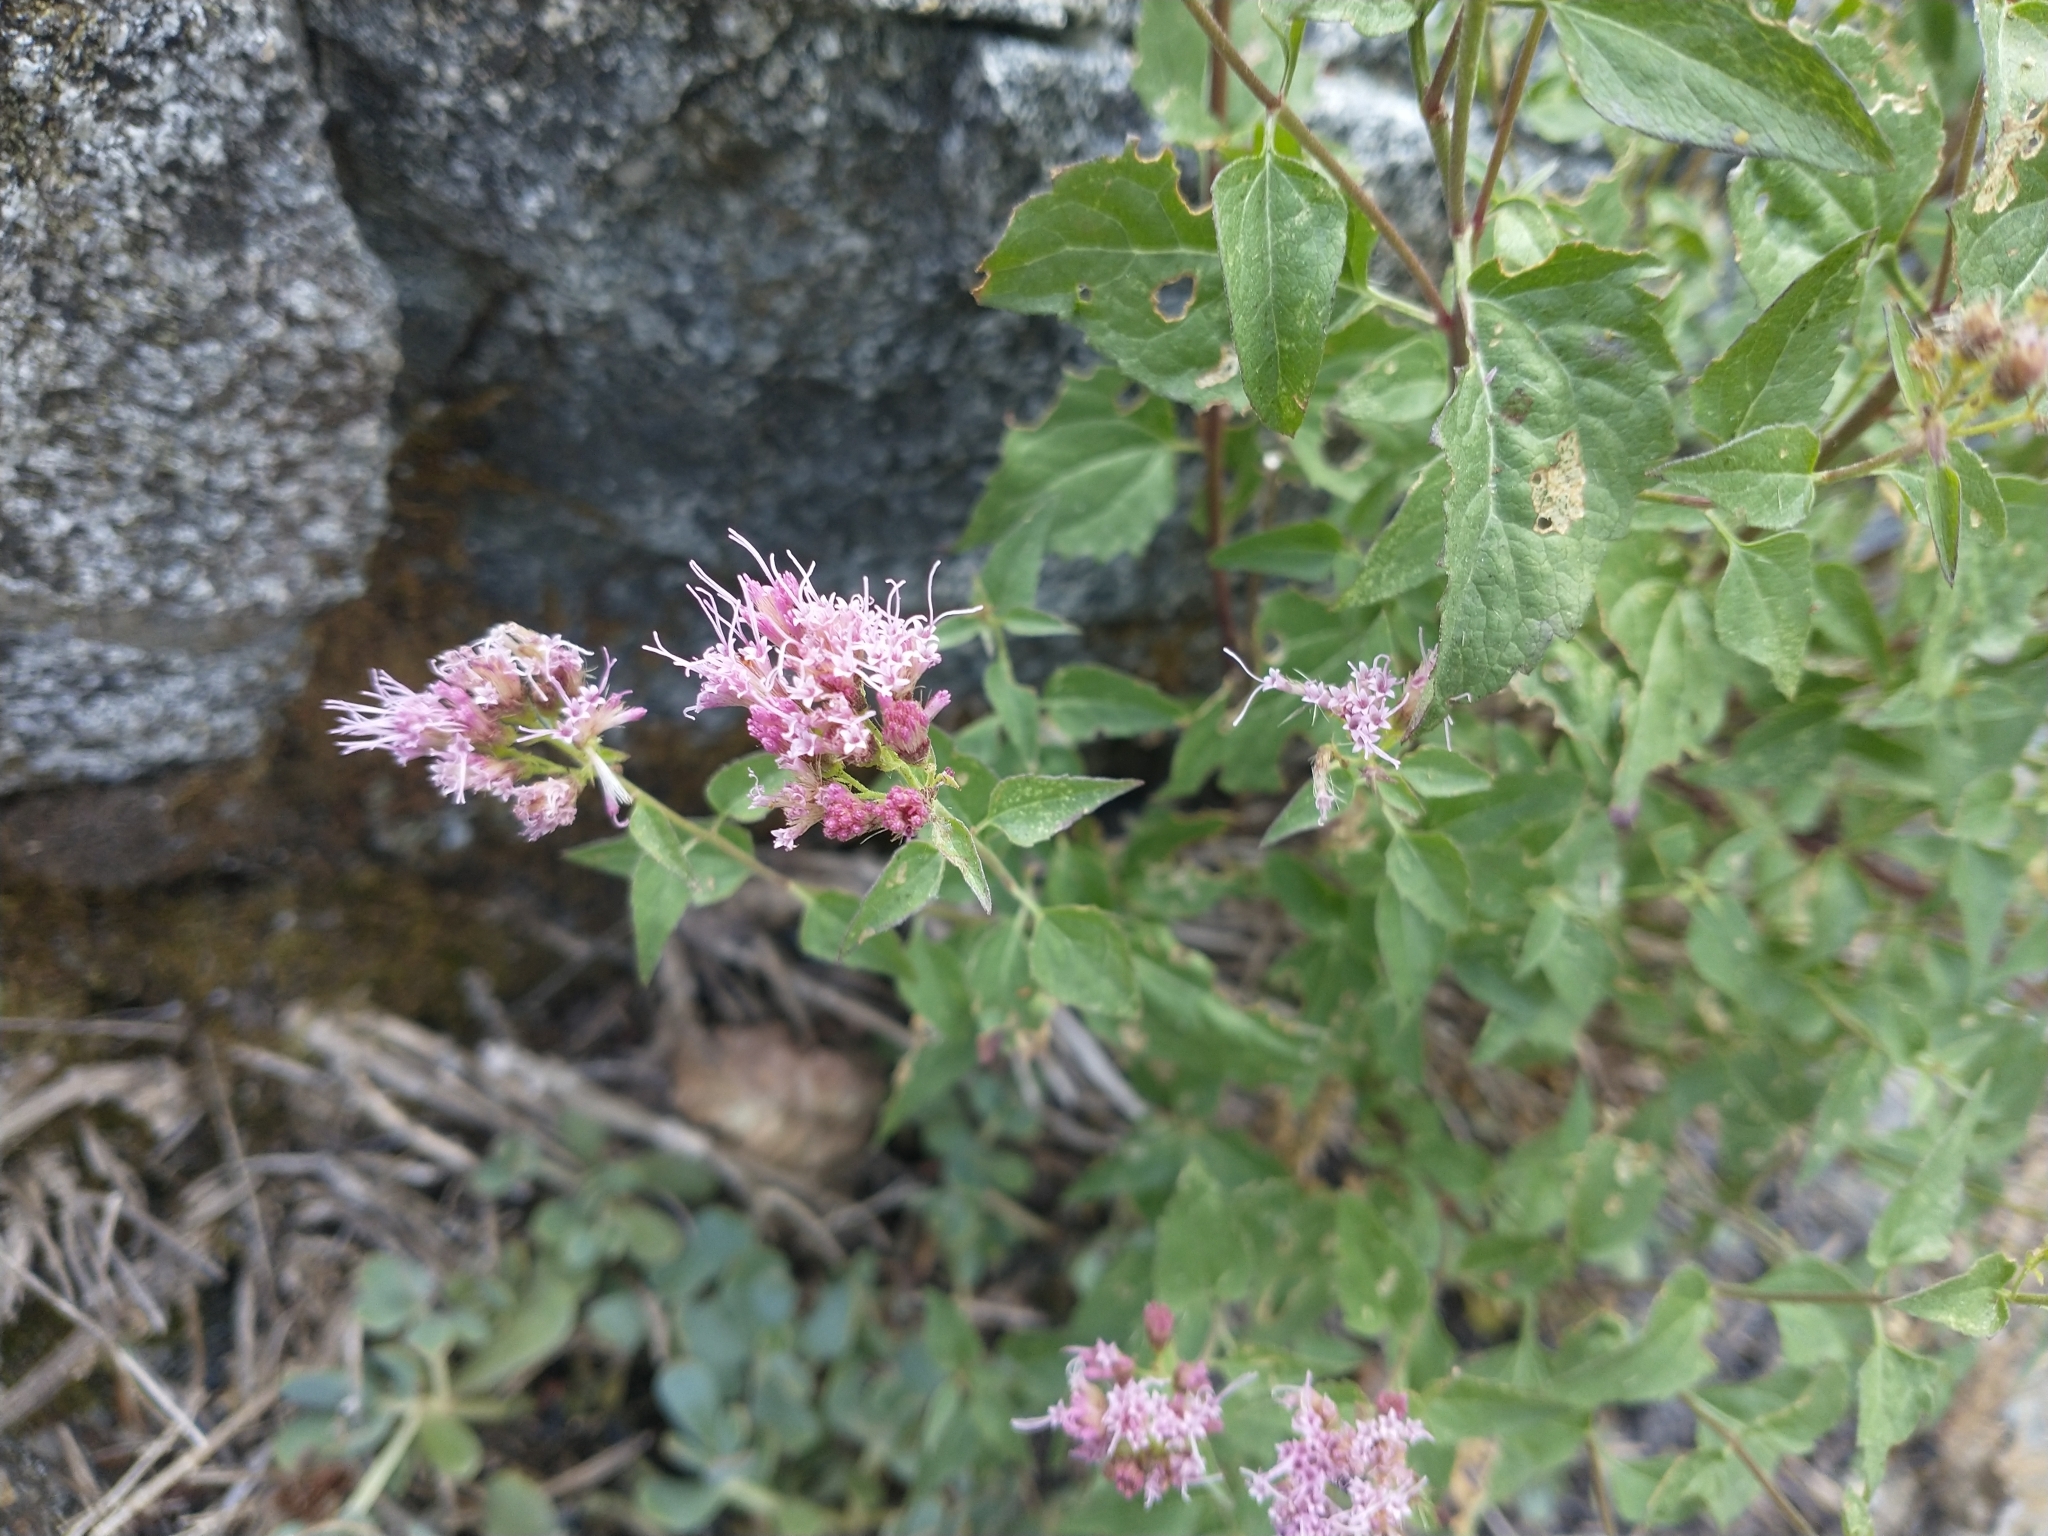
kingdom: Plantae
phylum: Tracheophyta
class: Magnoliopsida
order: Asterales
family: Asteraceae
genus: Ageratina
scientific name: Ageratina occidentalis
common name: Western snakeroot
